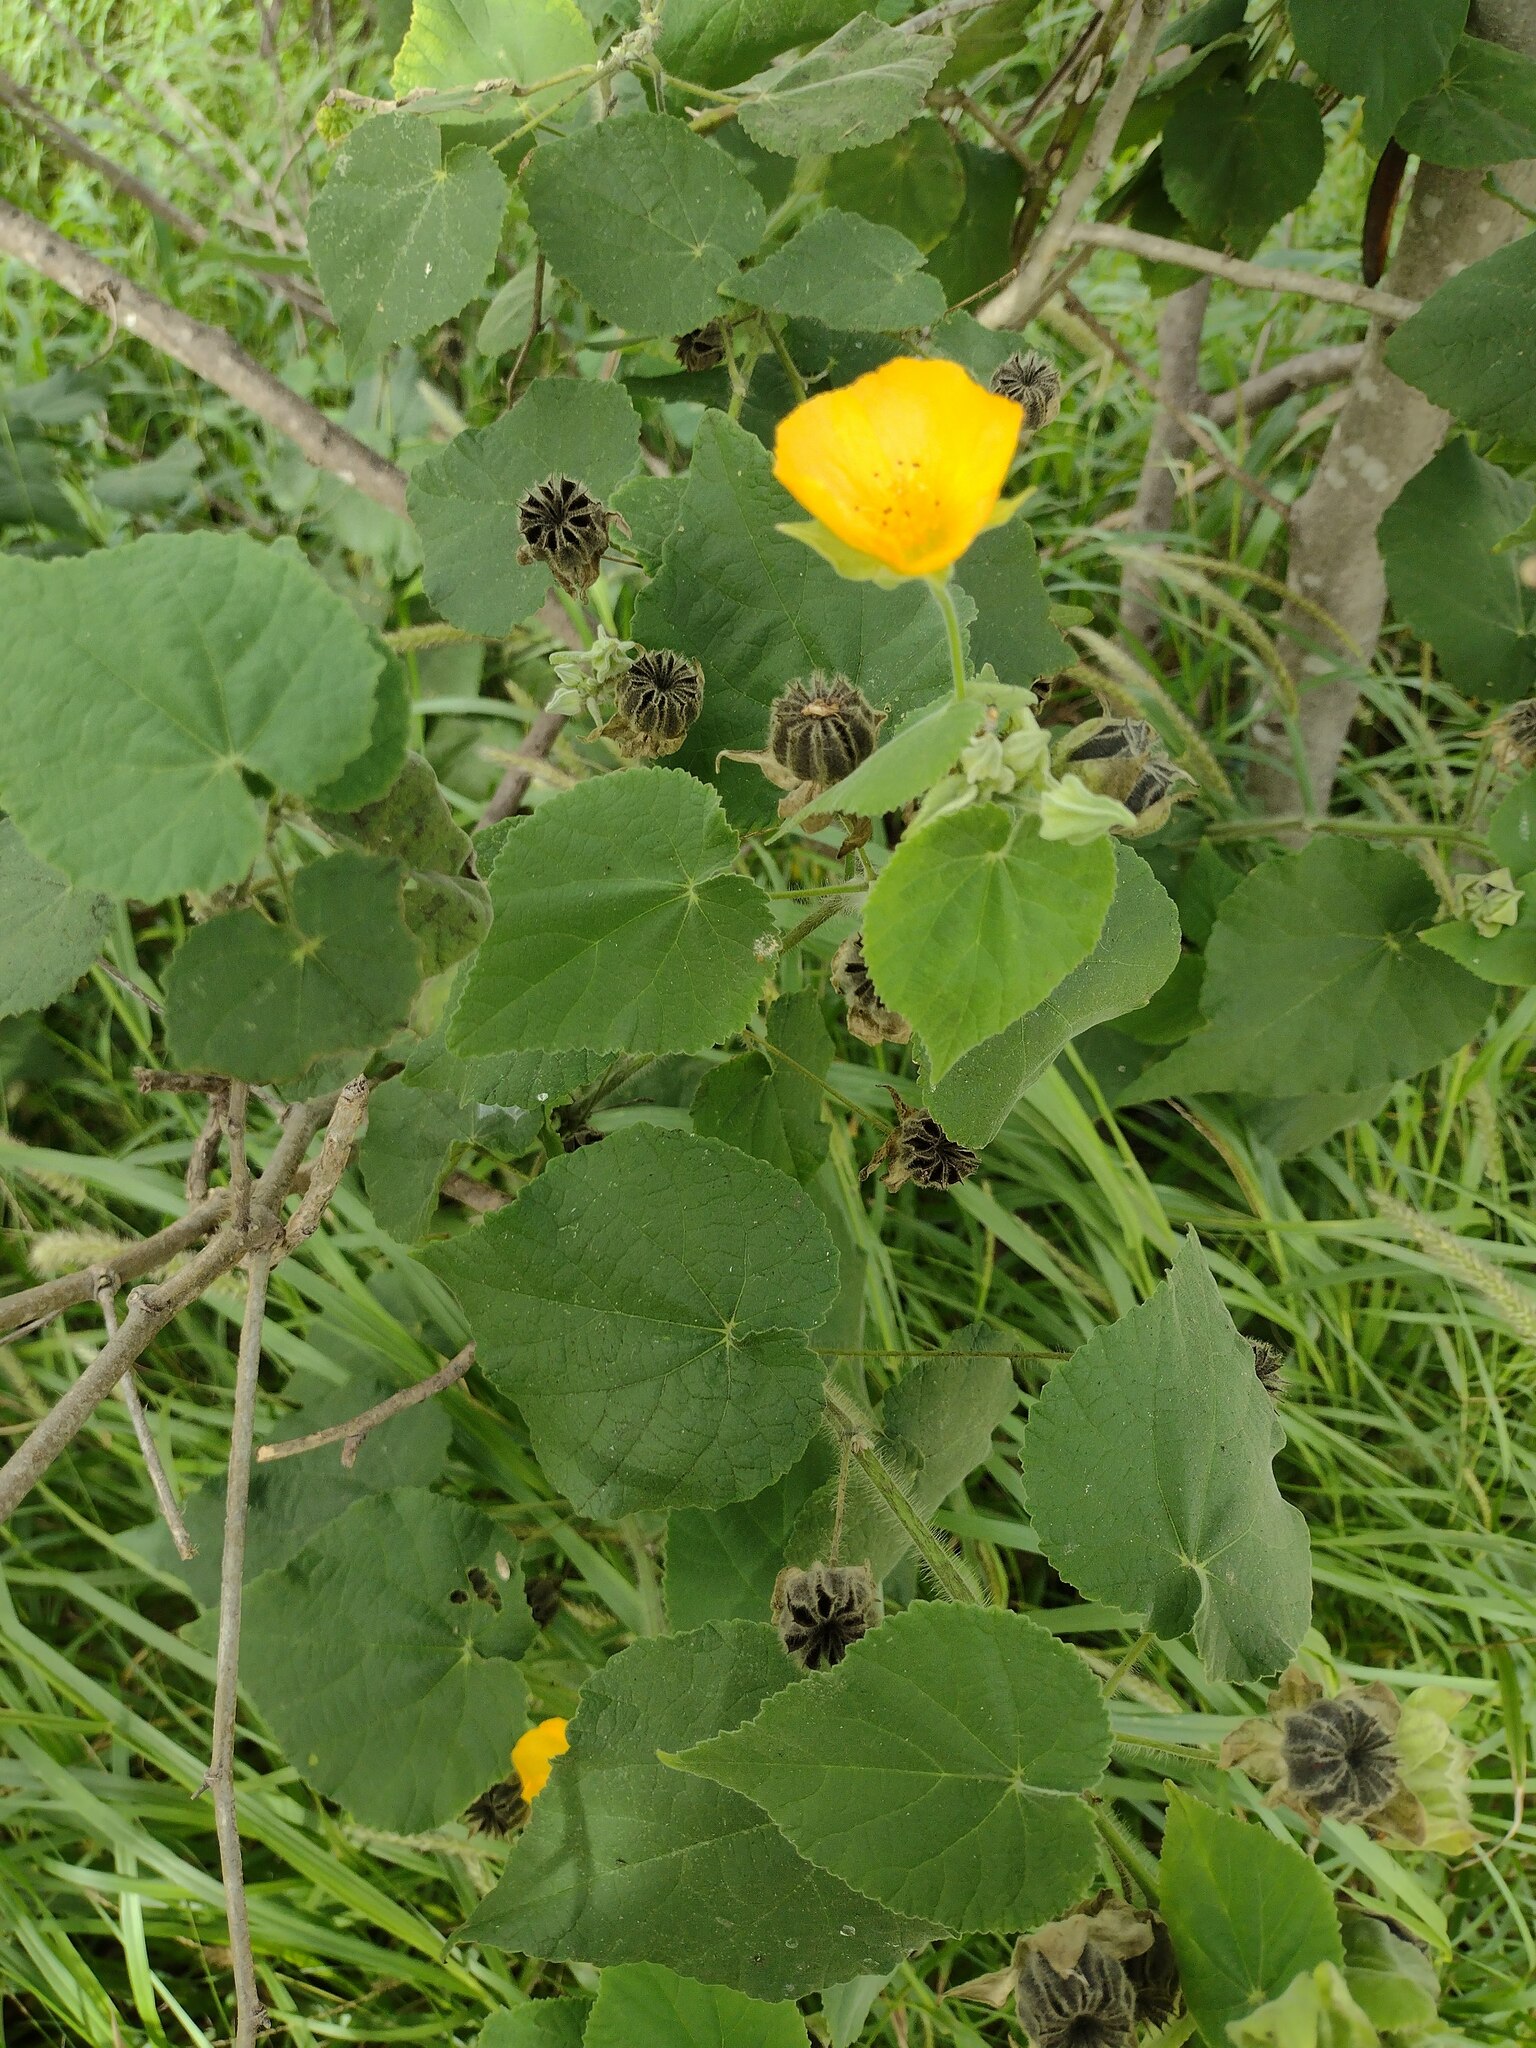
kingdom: Plantae
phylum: Tracheophyta
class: Magnoliopsida
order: Malvales
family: Malvaceae
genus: Abutilon
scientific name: Abutilon grandifolium
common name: Hairy abutilon
